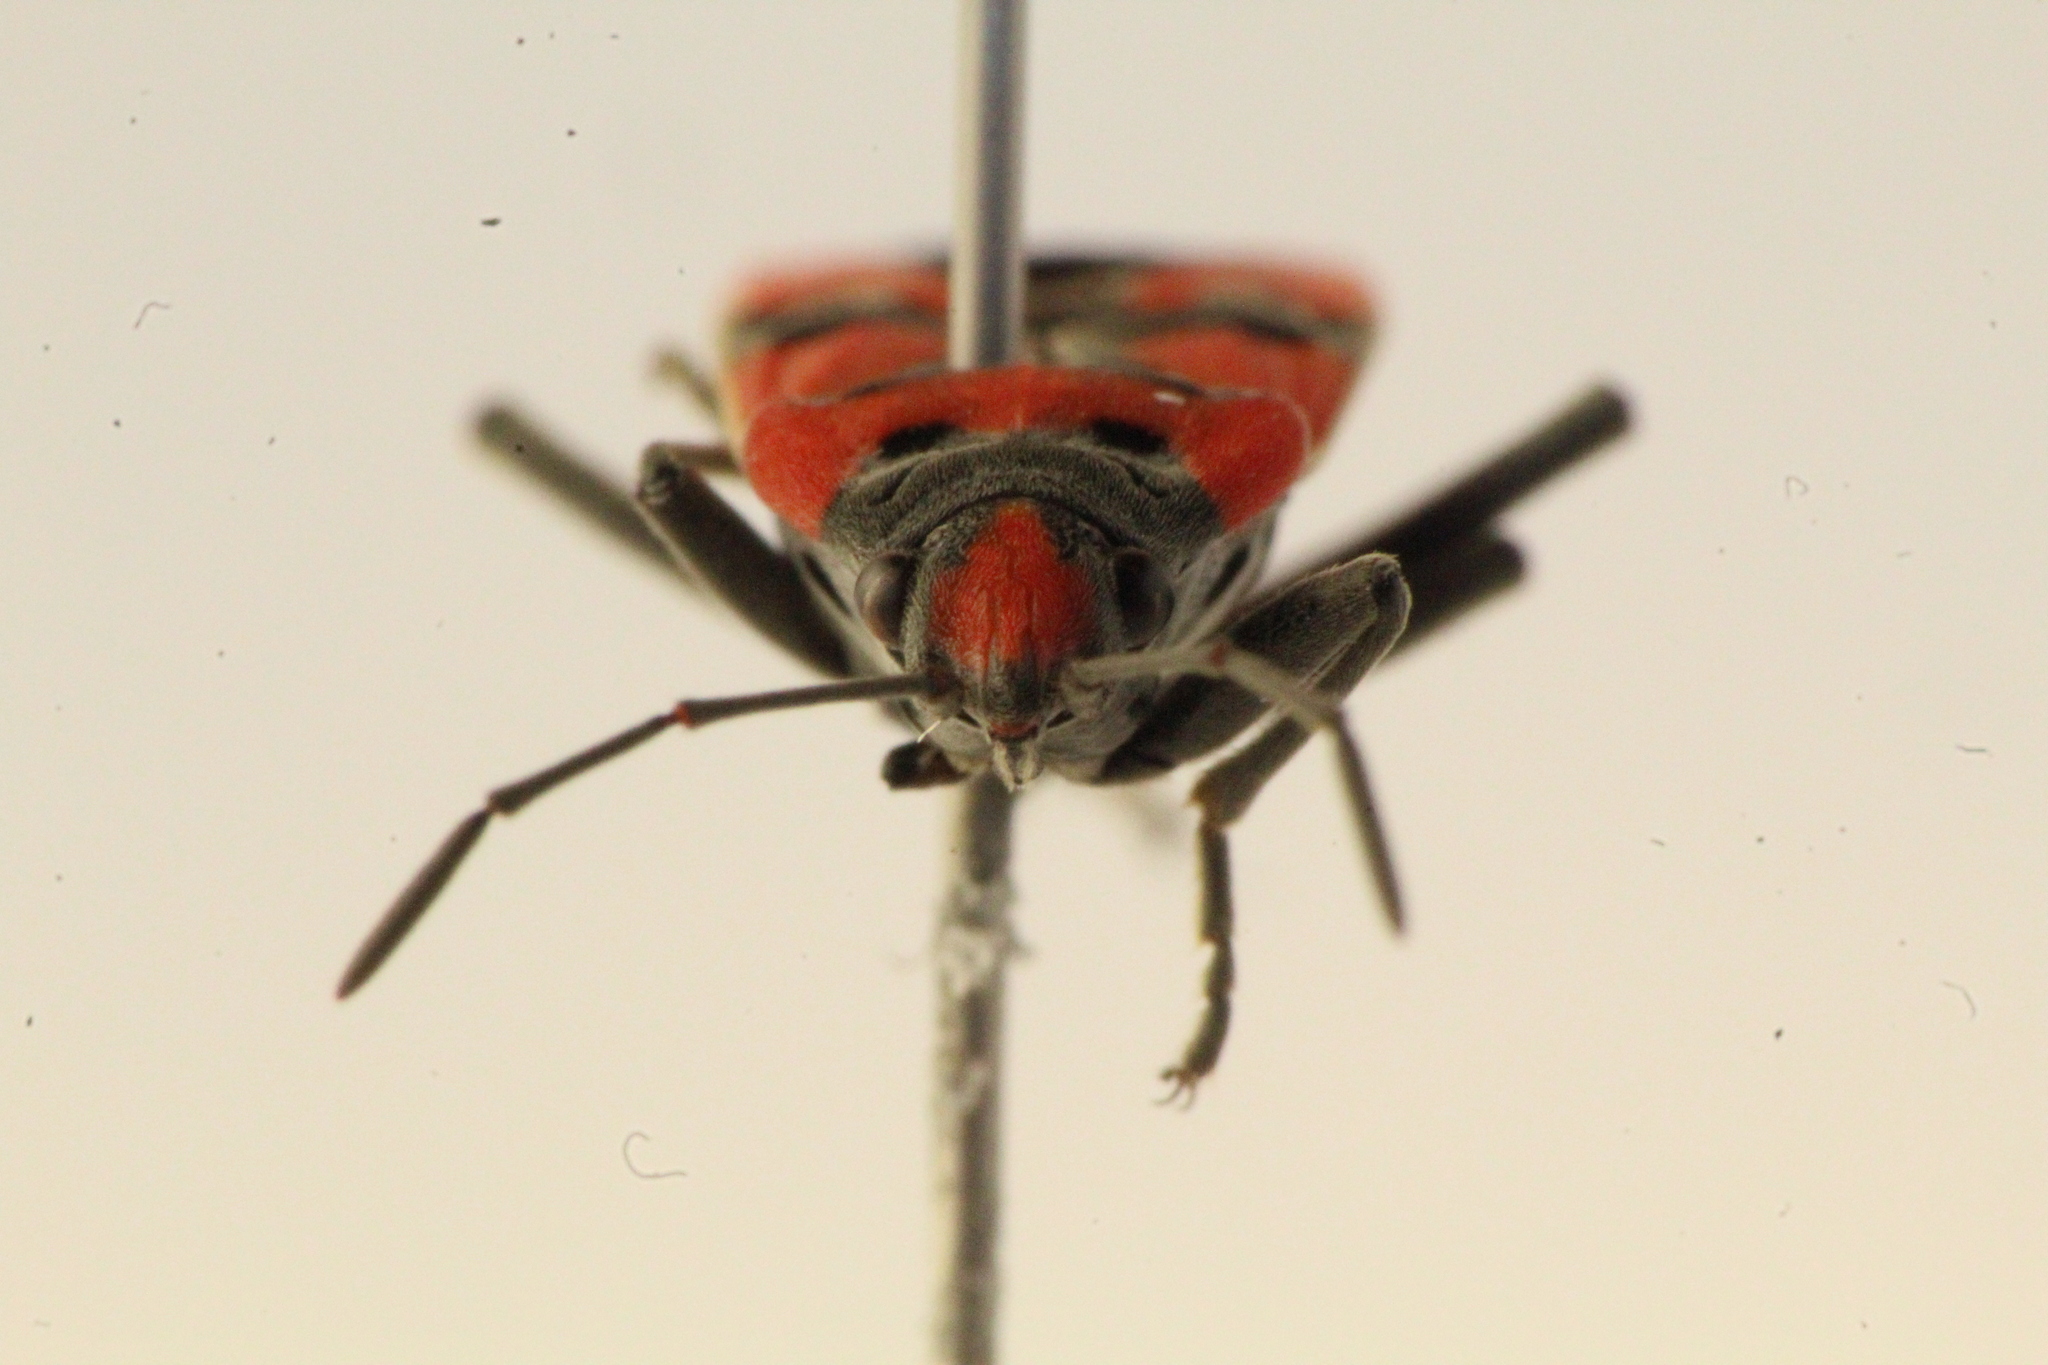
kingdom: Animalia
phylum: Arthropoda
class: Insecta
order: Hemiptera
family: Lygaeidae
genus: Lygaeus
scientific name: Lygaeus equestris
